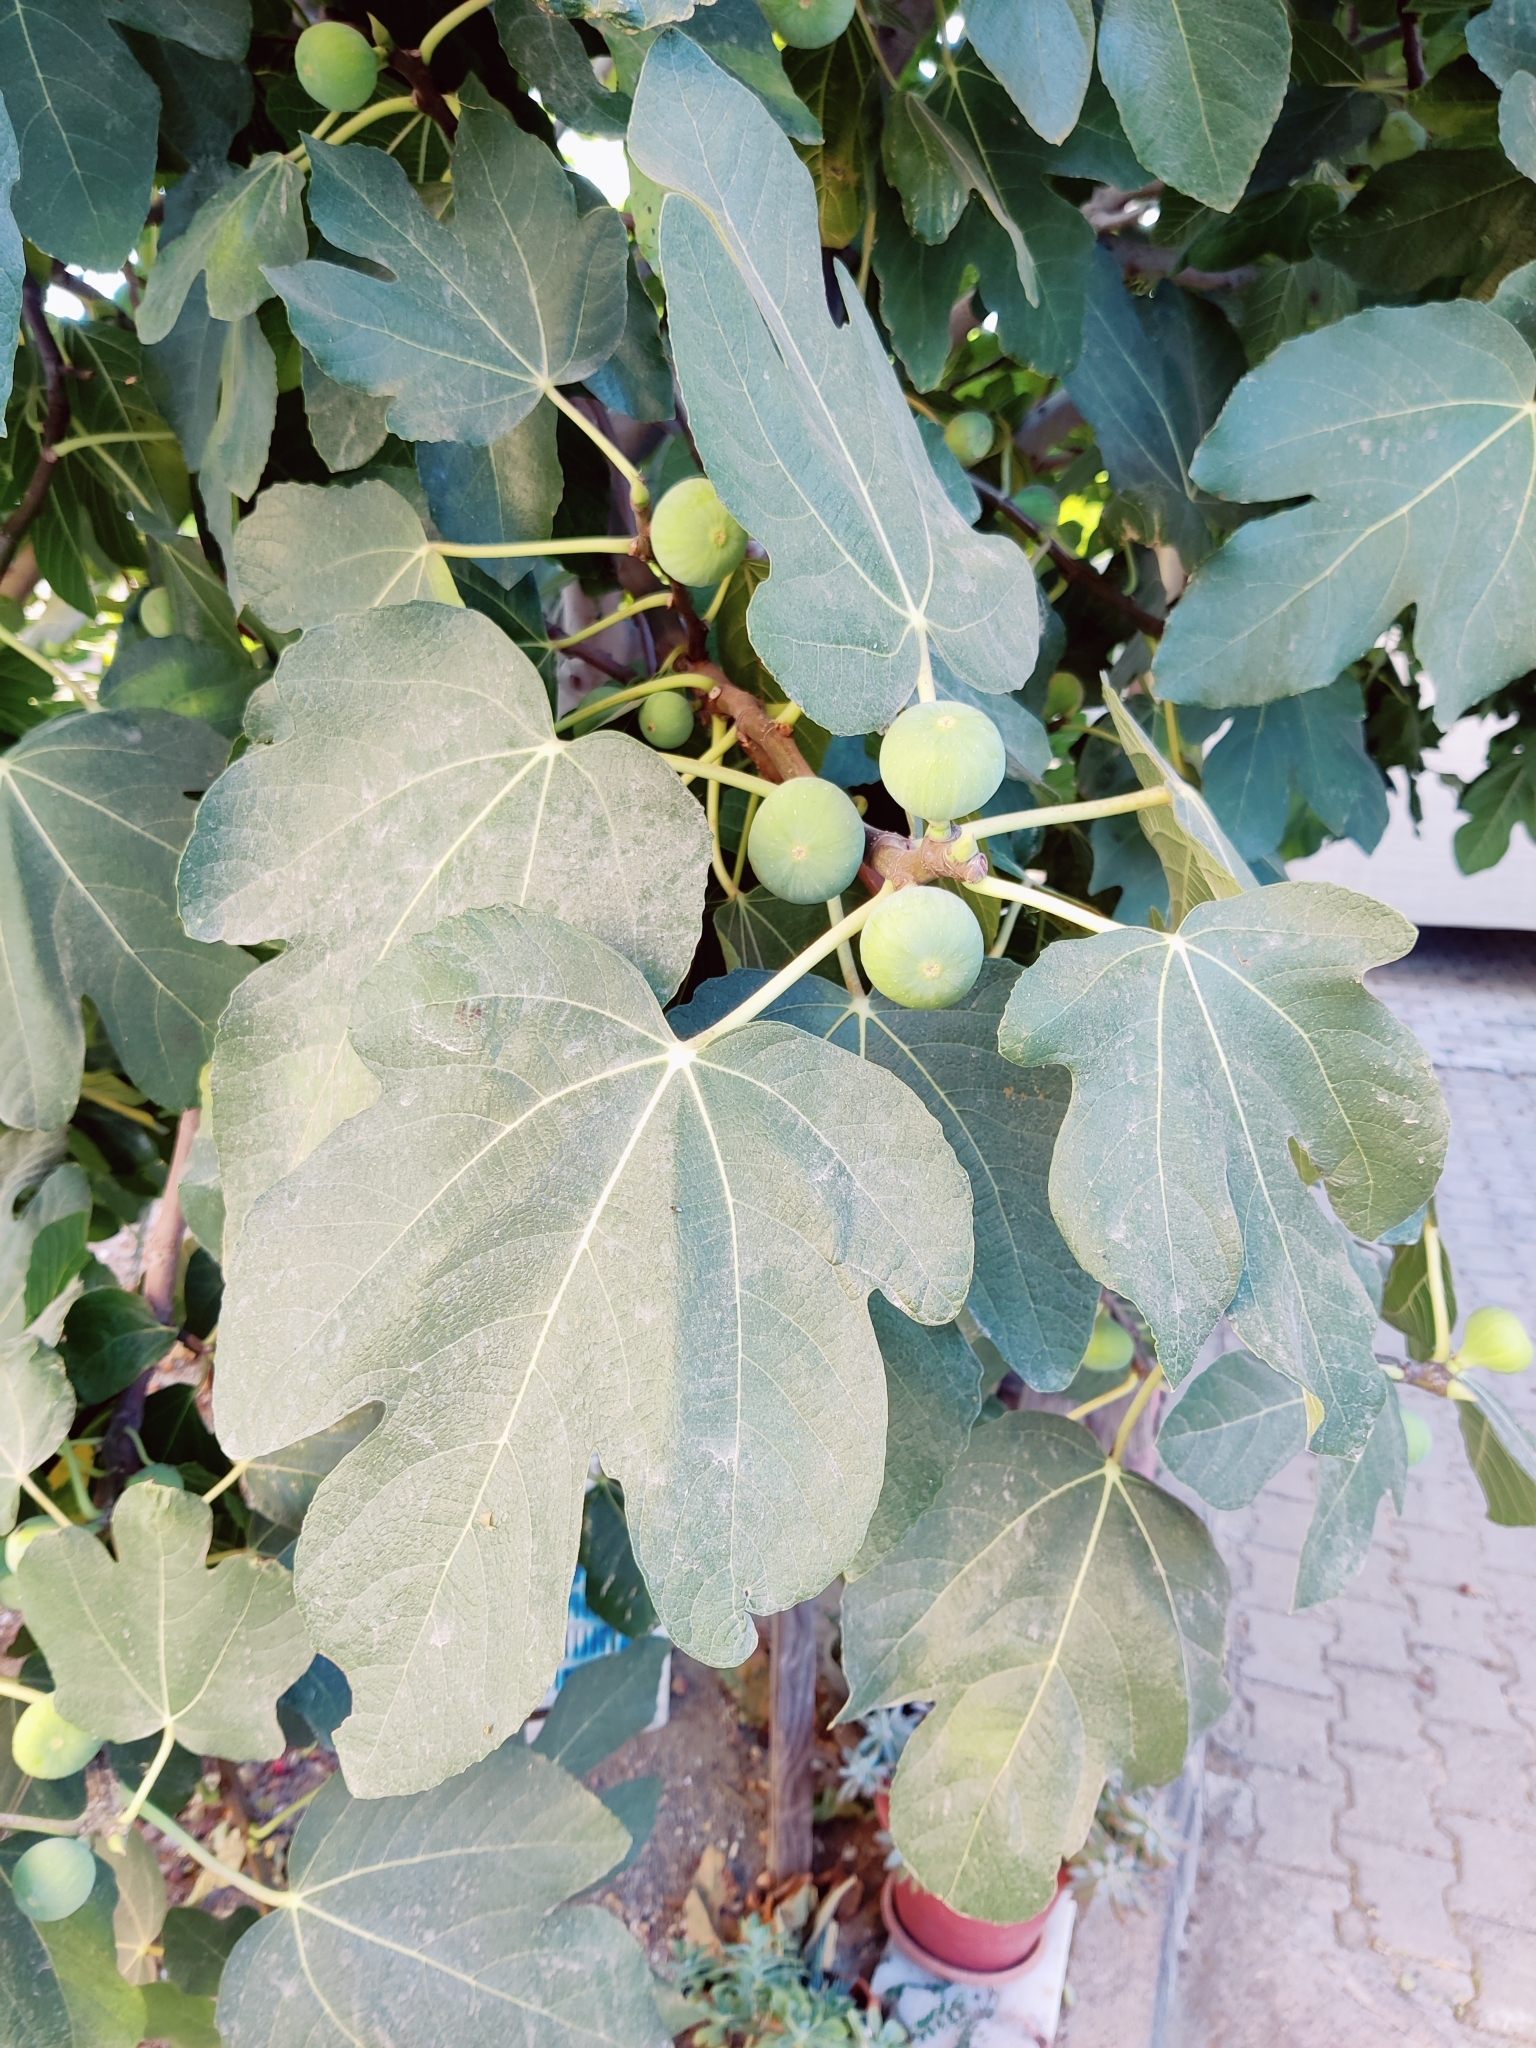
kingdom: Plantae
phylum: Tracheophyta
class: Magnoliopsida
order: Rosales
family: Moraceae
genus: Ficus
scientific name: Ficus carica
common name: Fig
